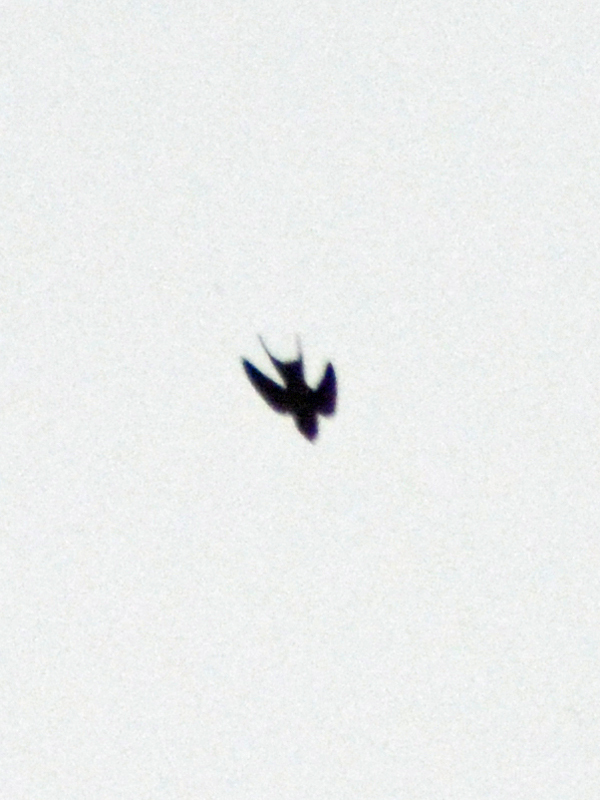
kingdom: Animalia
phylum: Chordata
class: Aves
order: Passeriformes
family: Hirundinidae
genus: Hirundo
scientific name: Hirundo rustica
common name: Barn swallow
